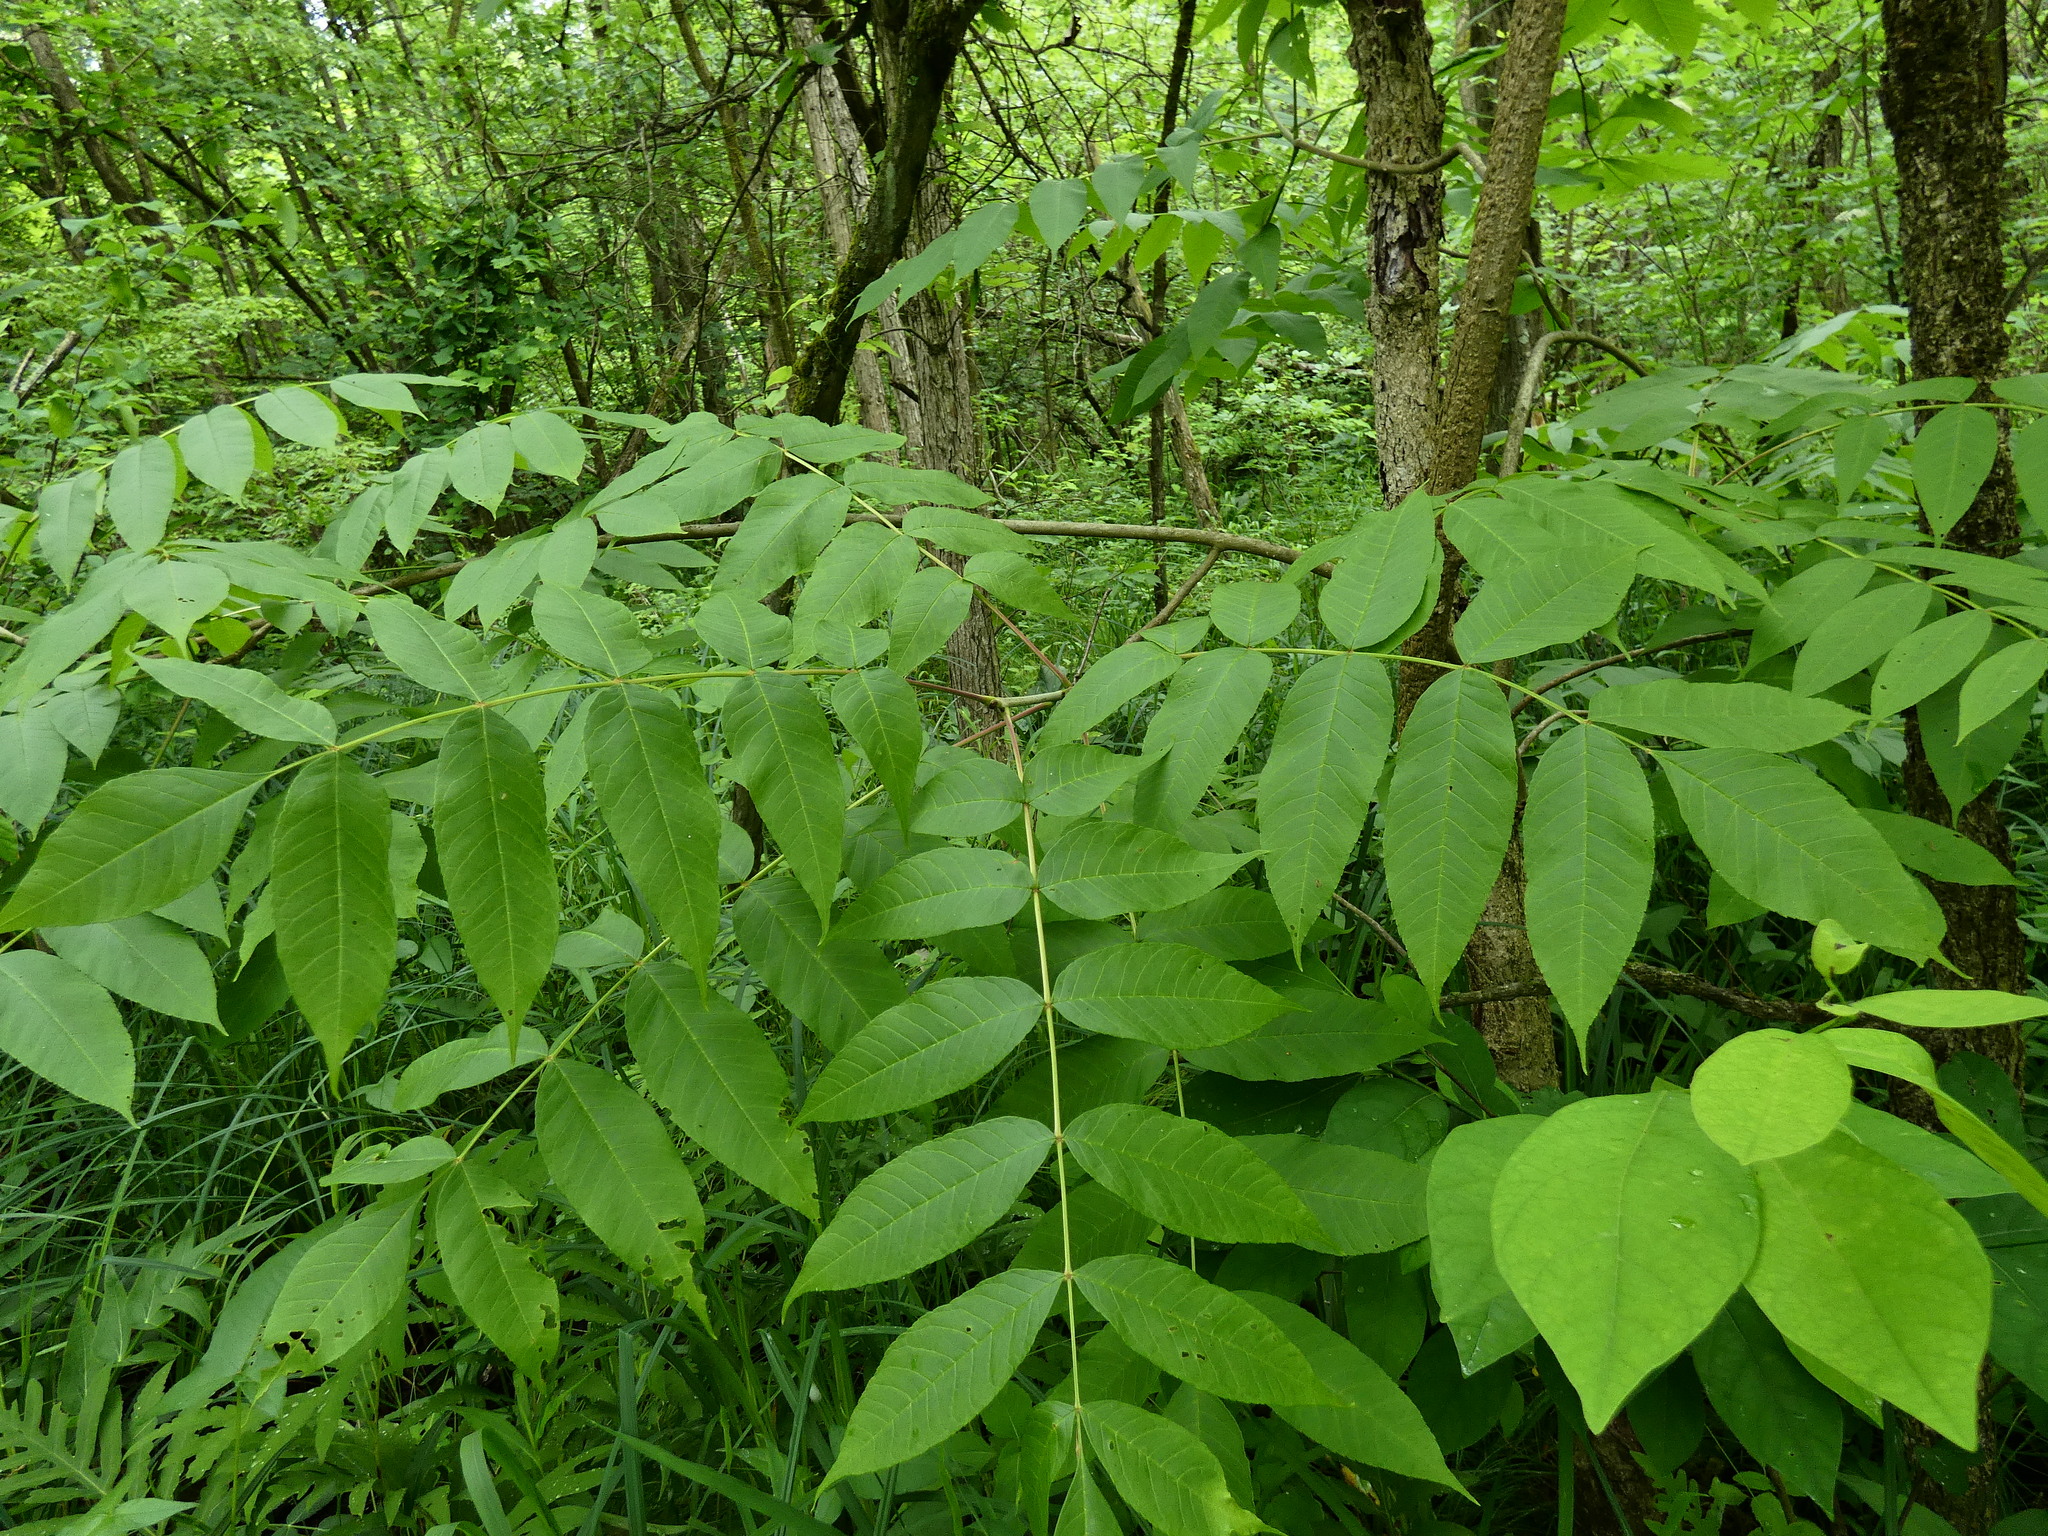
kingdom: Plantae
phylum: Tracheophyta
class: Magnoliopsida
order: Lamiales
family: Oleaceae
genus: Fraxinus
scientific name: Fraxinus nigra
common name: Black ash
